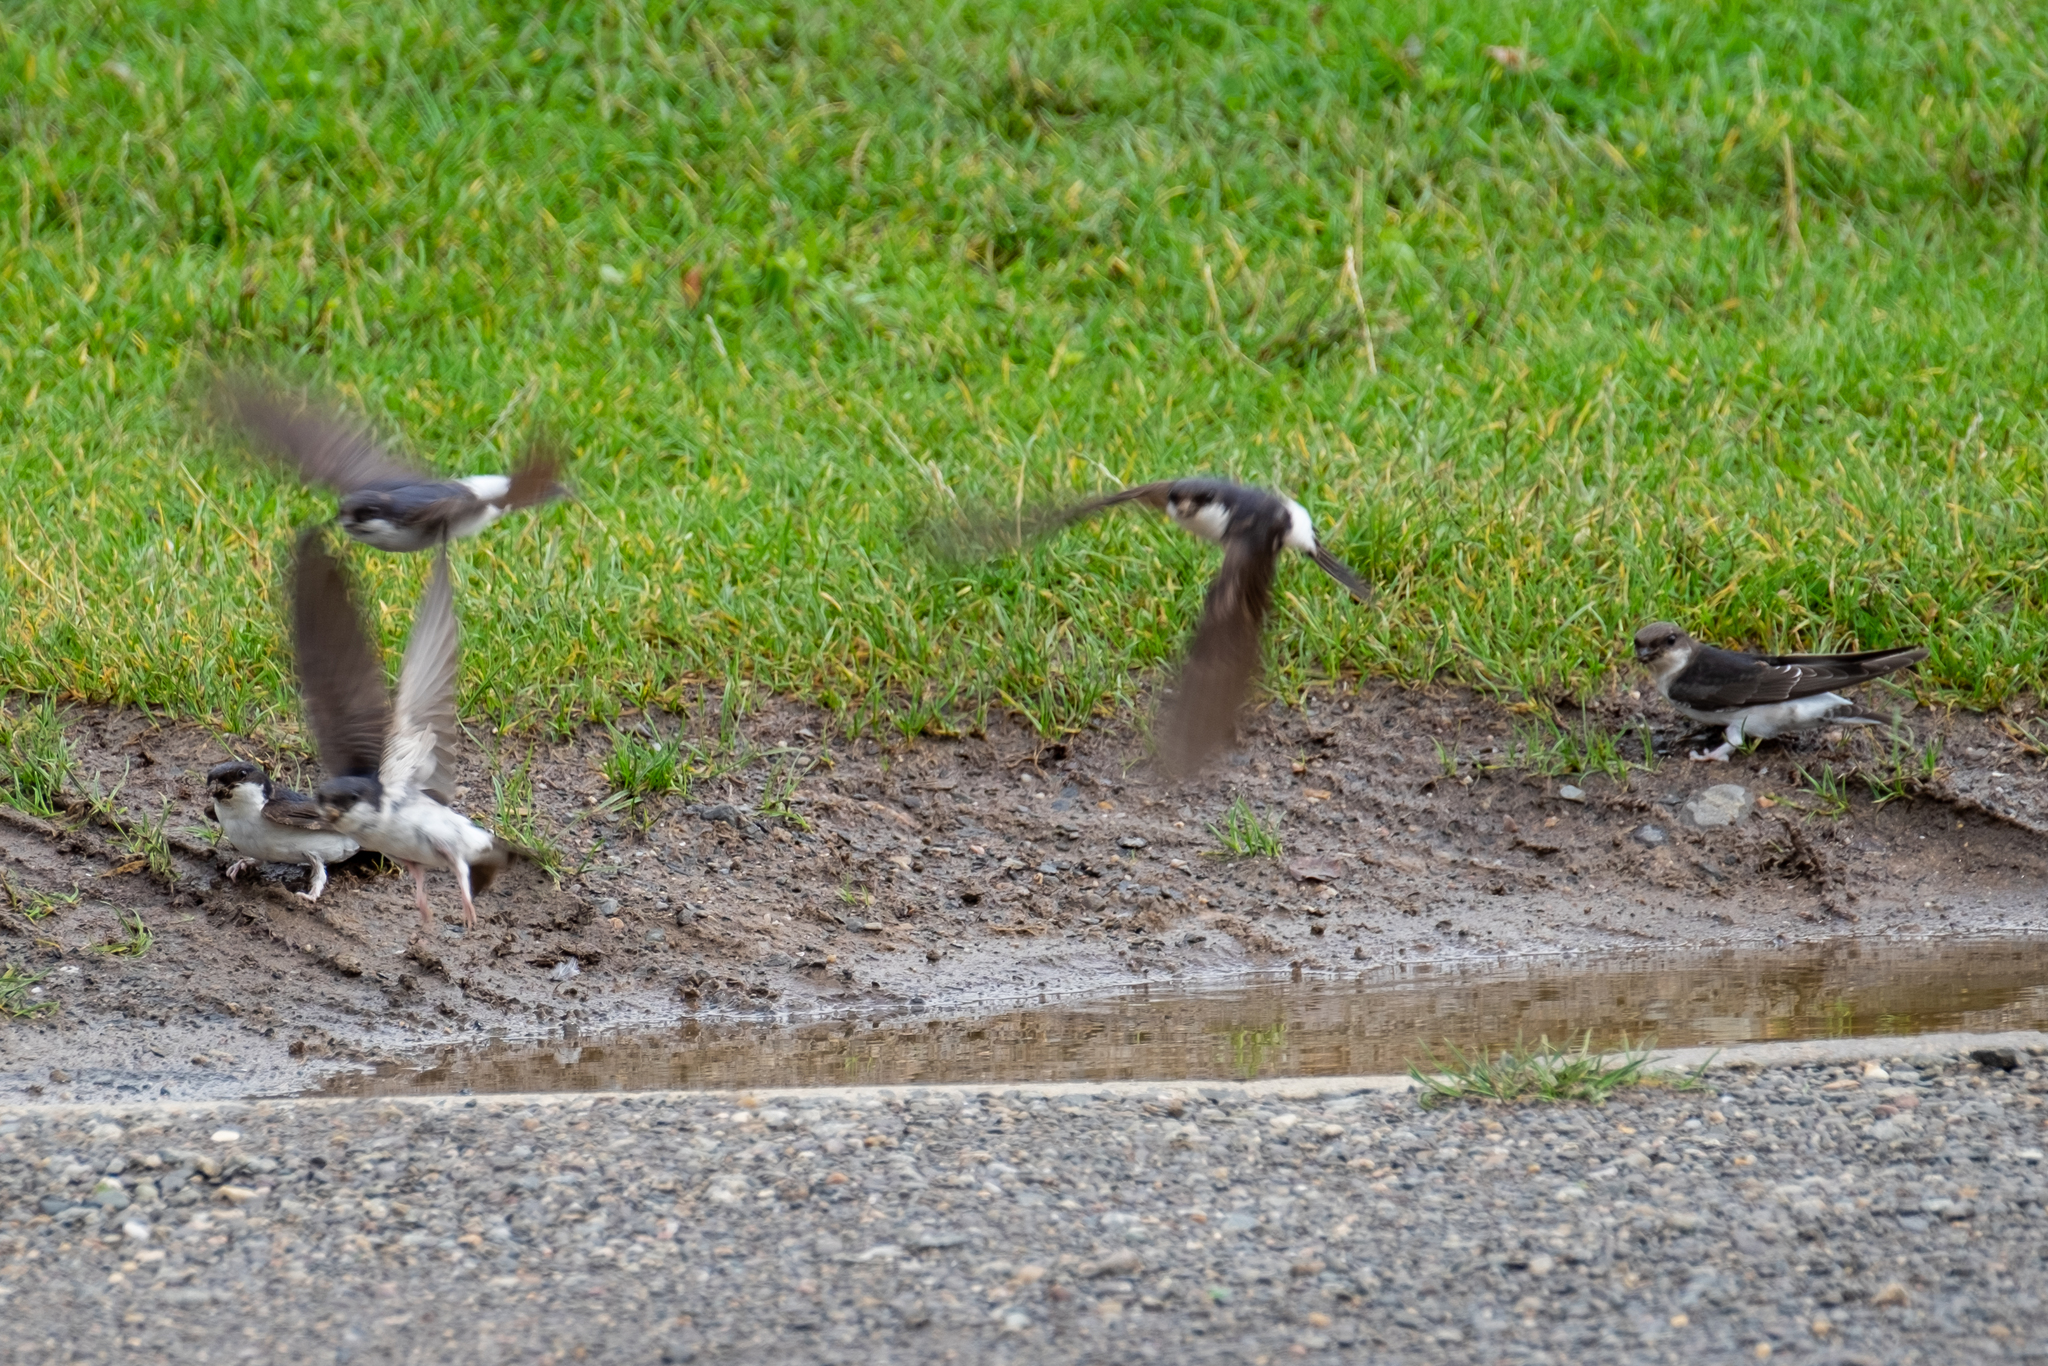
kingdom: Animalia
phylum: Chordata
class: Aves
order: Passeriformes
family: Hirundinidae
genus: Delichon
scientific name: Delichon urbicum
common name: Common house martin
